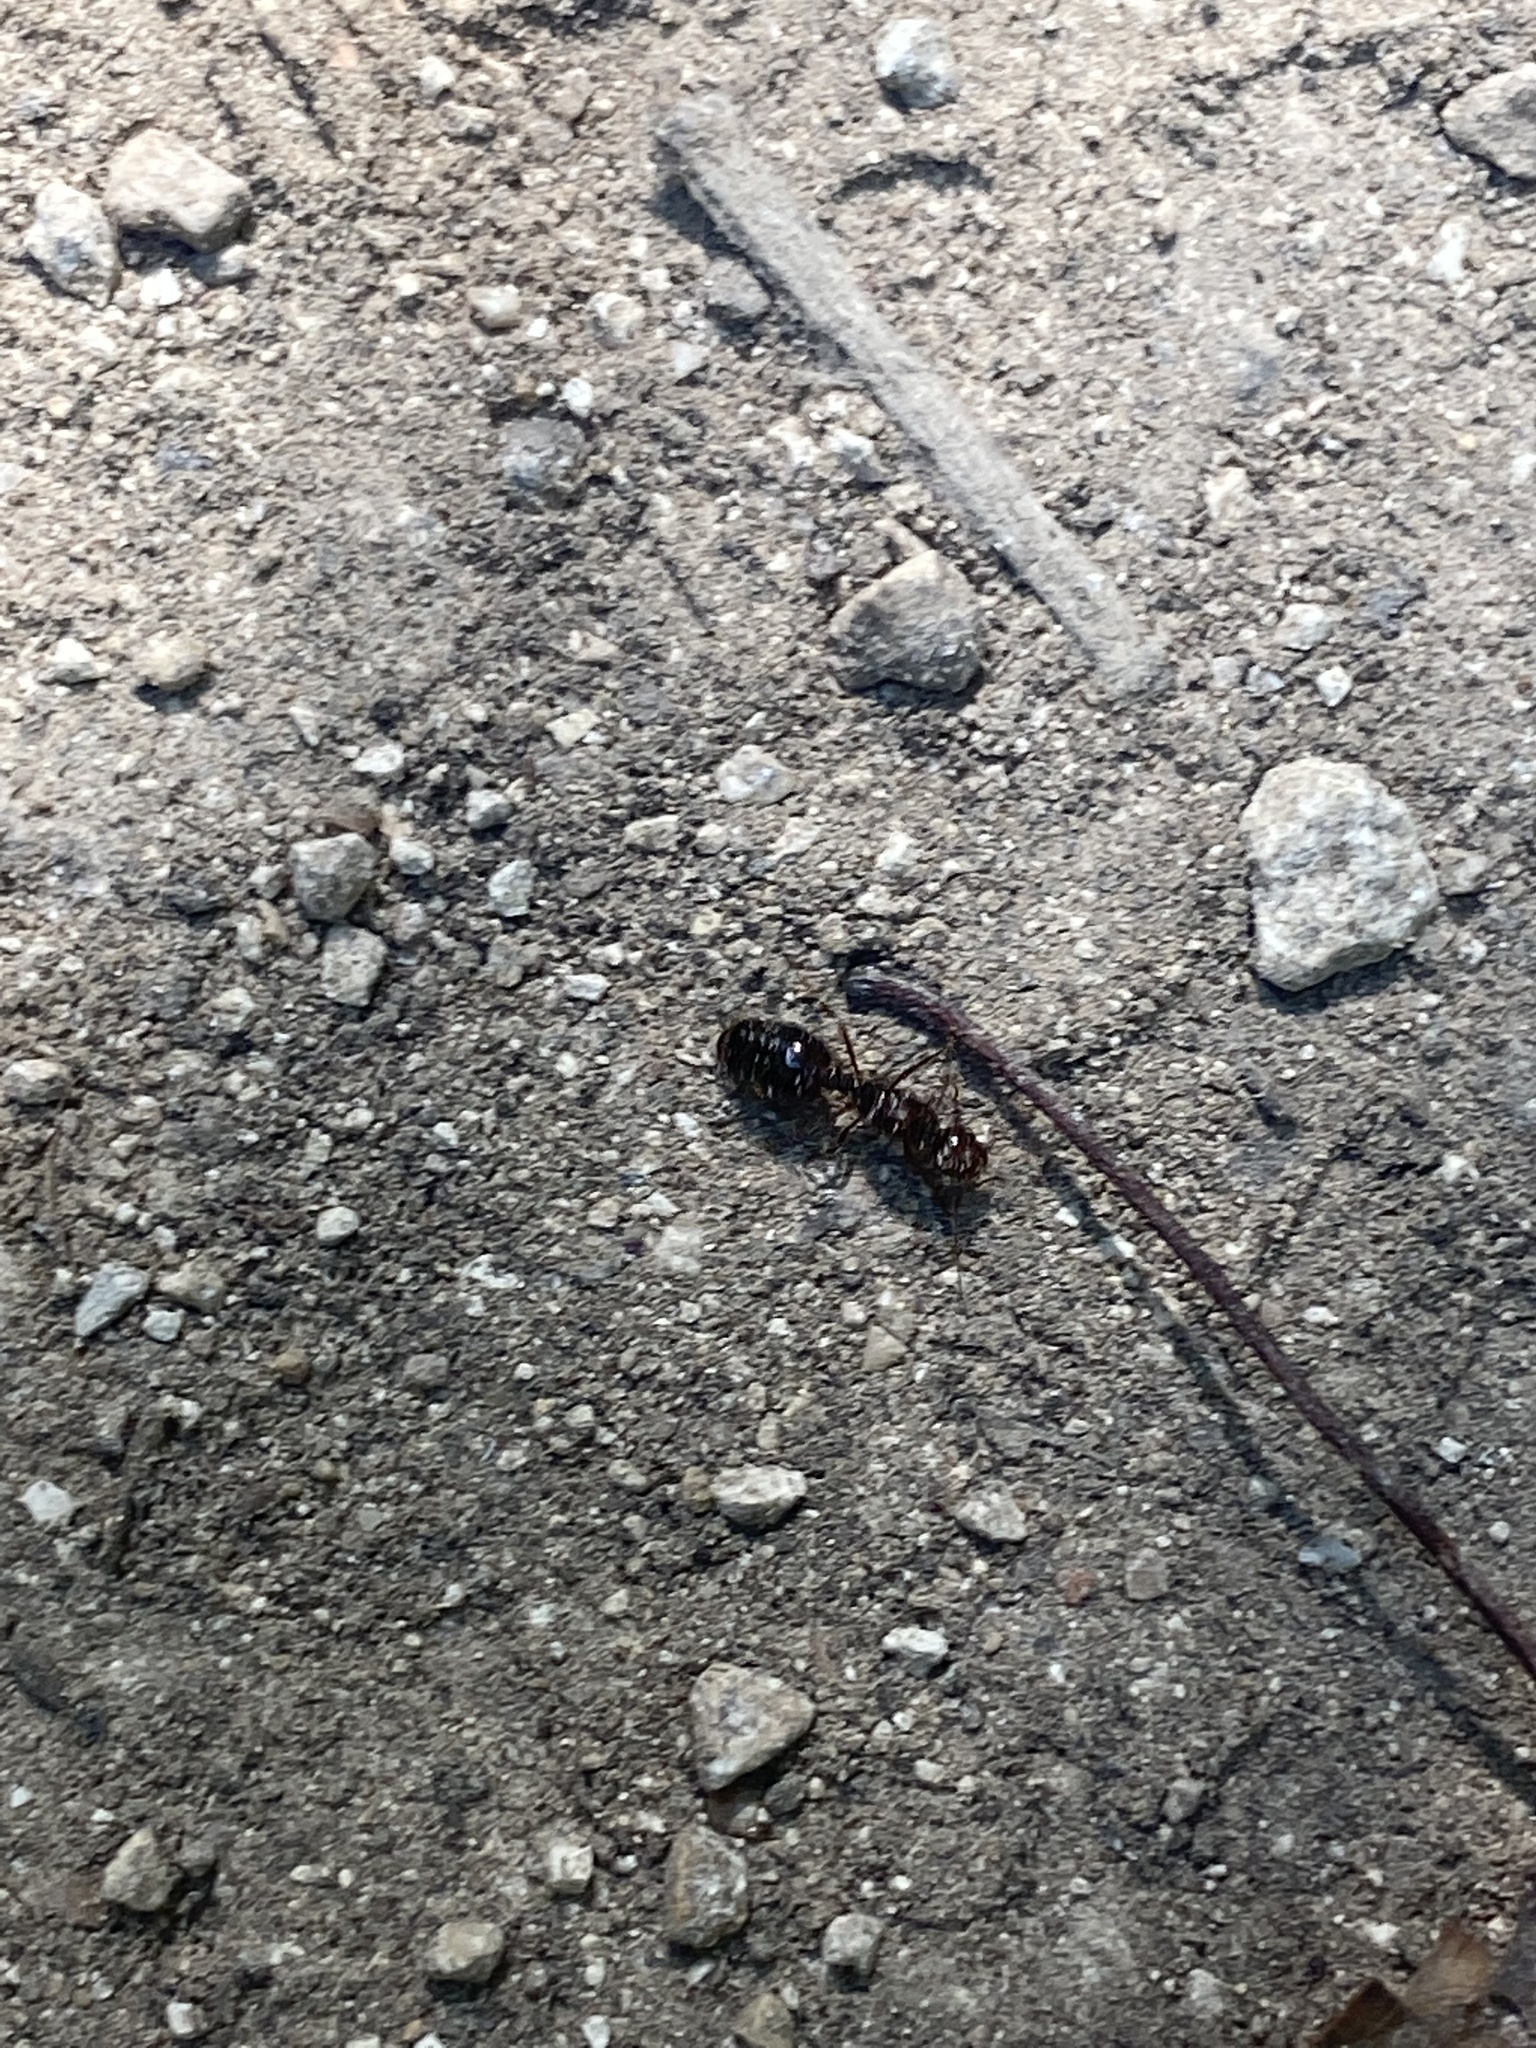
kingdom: Animalia
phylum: Arthropoda
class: Insecta
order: Hymenoptera
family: Formicidae
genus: Solenopsis
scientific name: Solenopsis invicta
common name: Red imported fire ant
